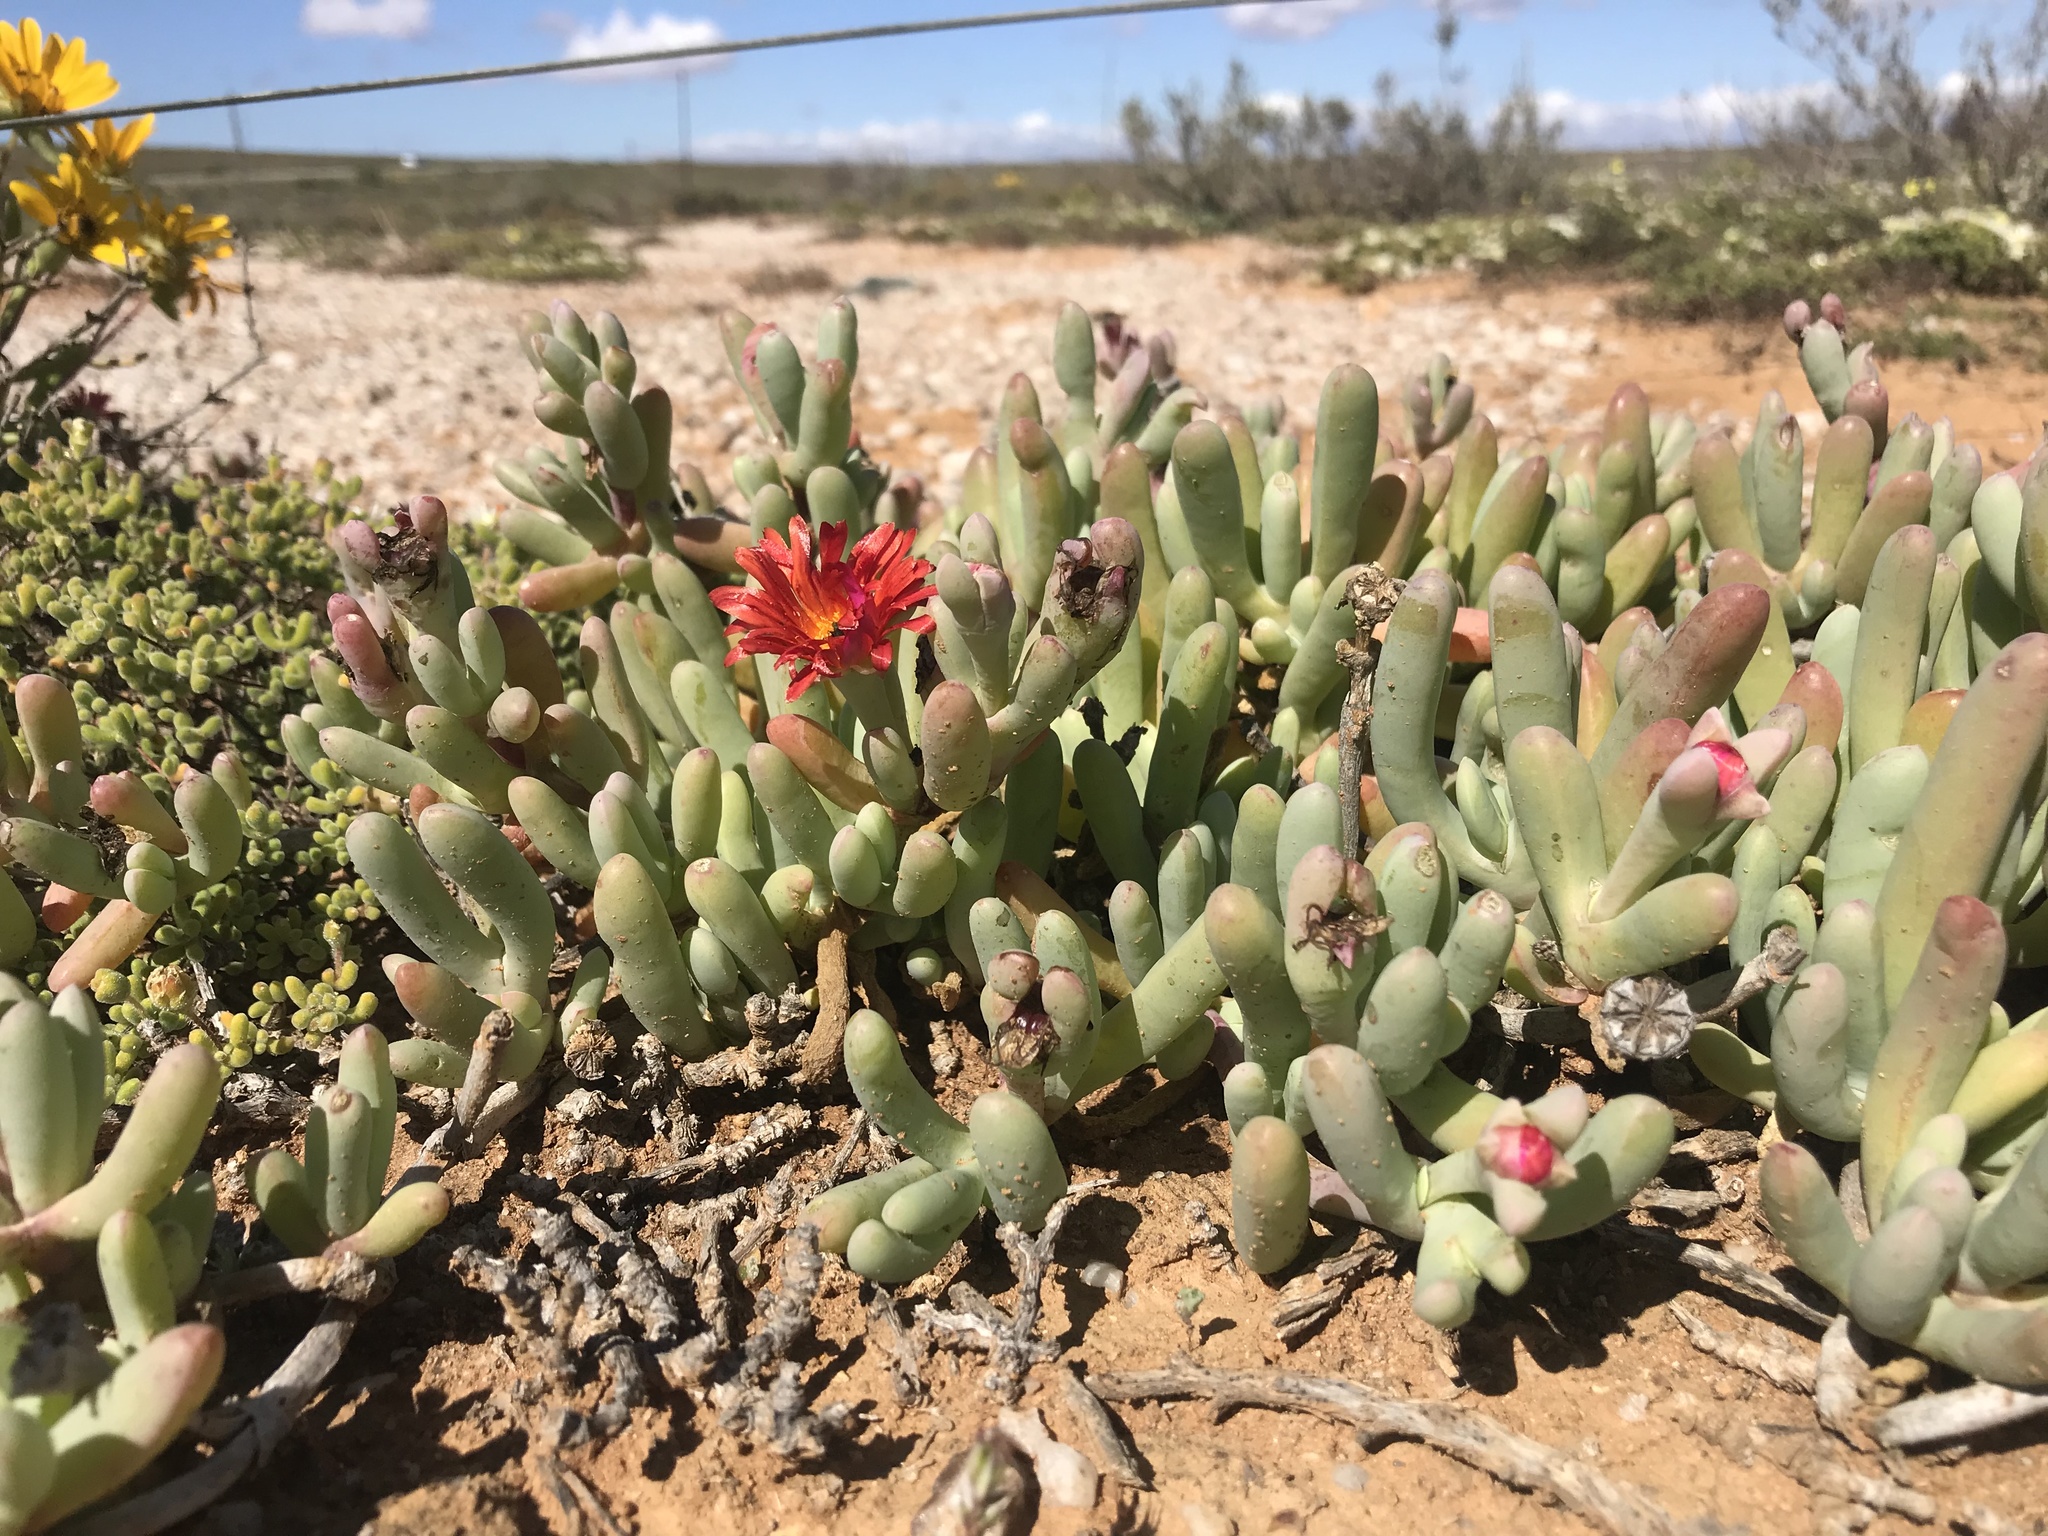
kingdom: Plantae
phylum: Tracheophyta
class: Magnoliopsida
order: Caryophyllales
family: Aizoaceae
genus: Malephora
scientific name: Malephora crocea
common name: Coppery mesemb
